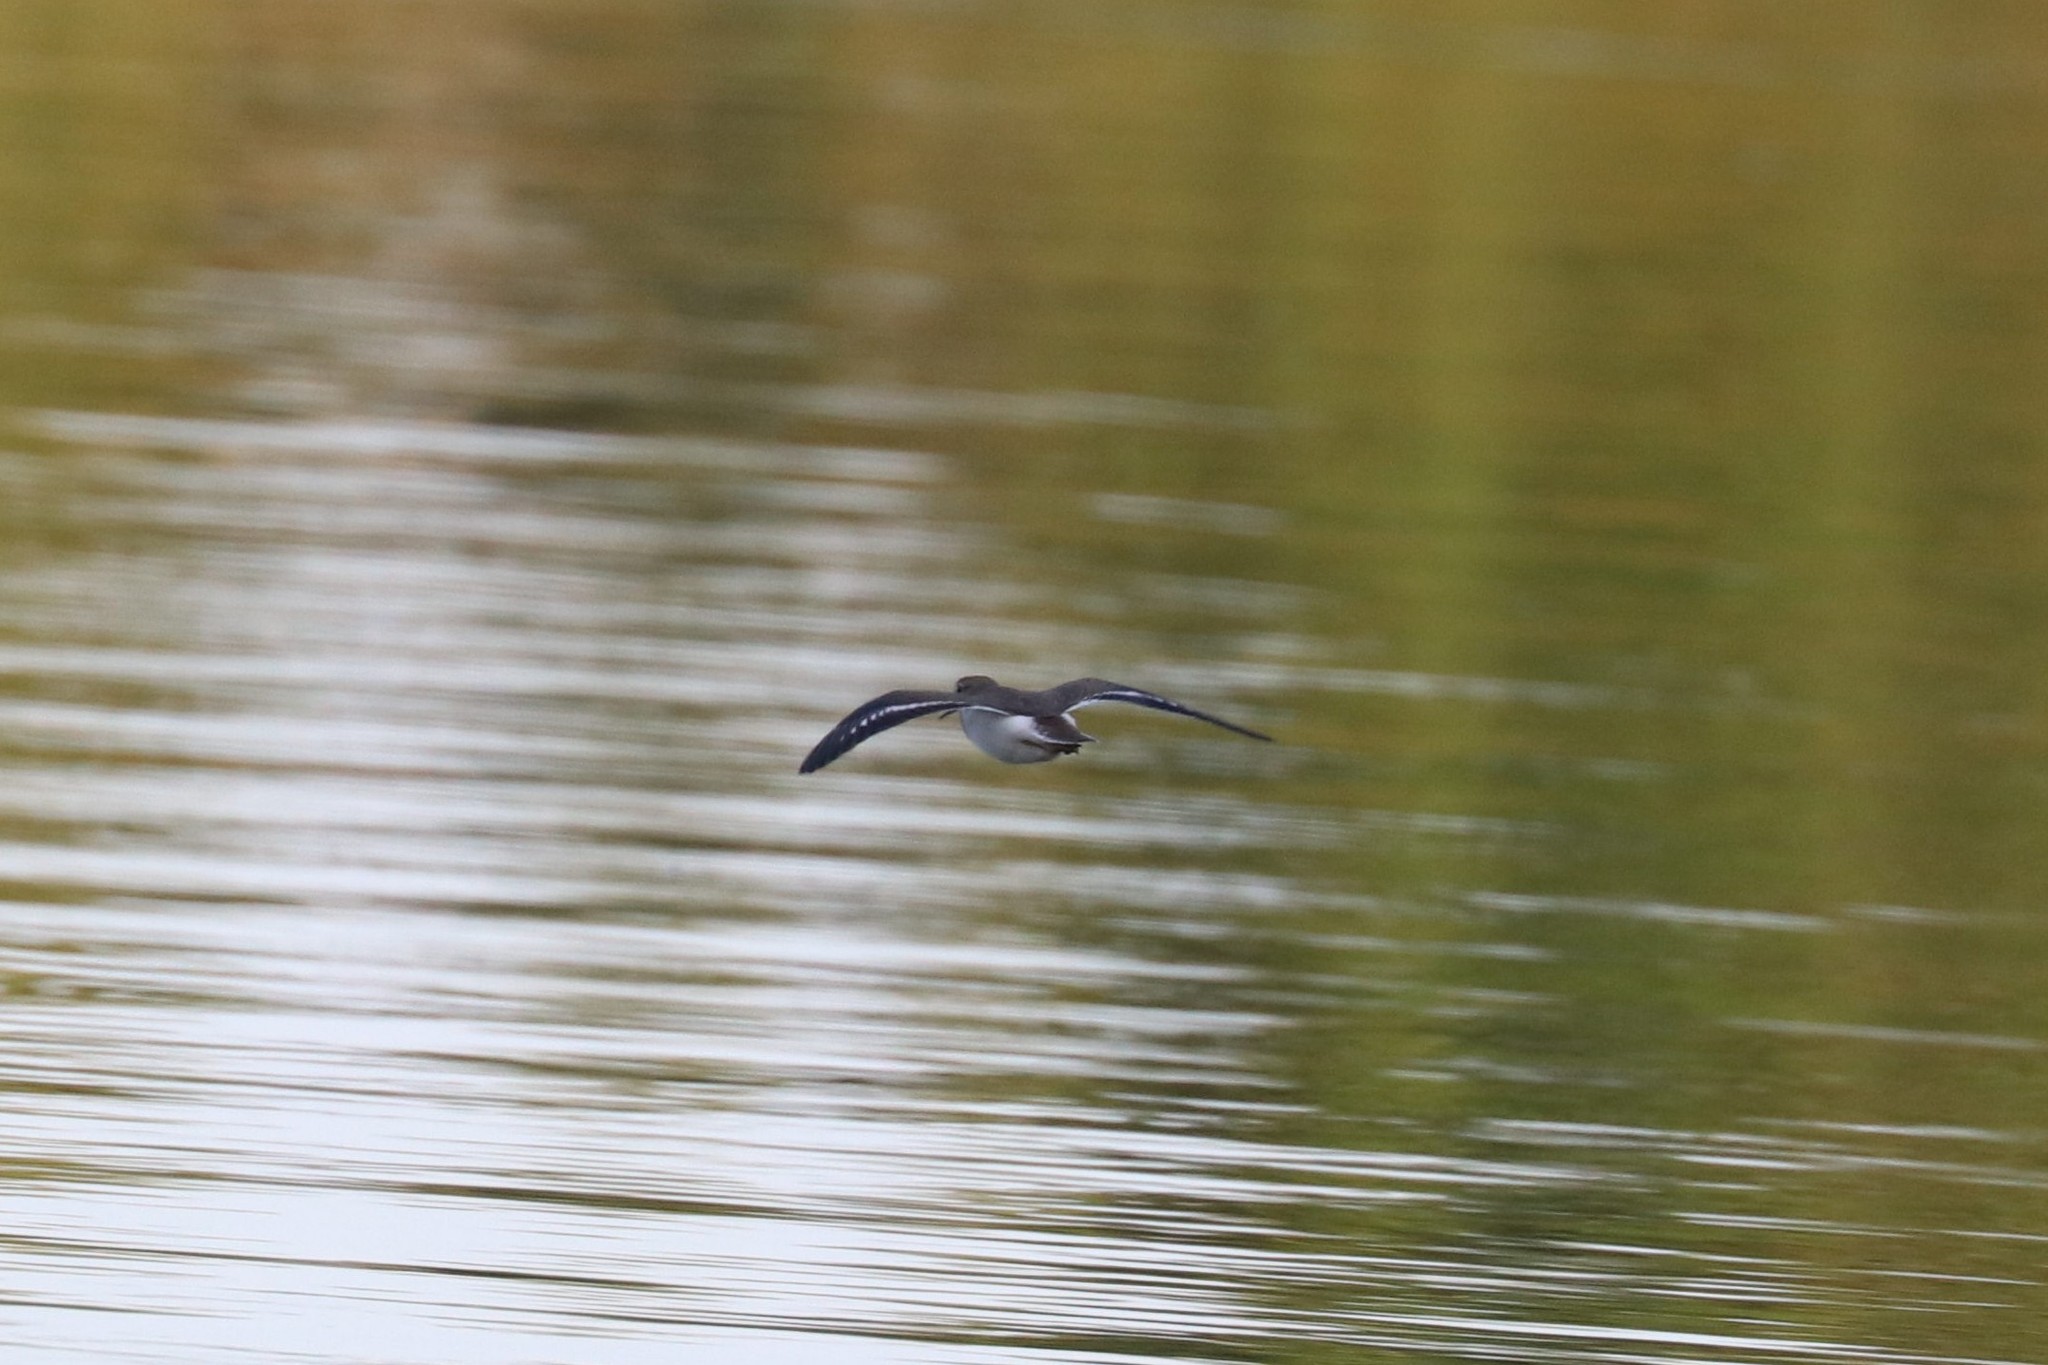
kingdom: Animalia
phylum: Chordata
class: Aves
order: Charadriiformes
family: Scolopacidae
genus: Actitis
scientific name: Actitis hypoleucos
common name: Common sandpiper
